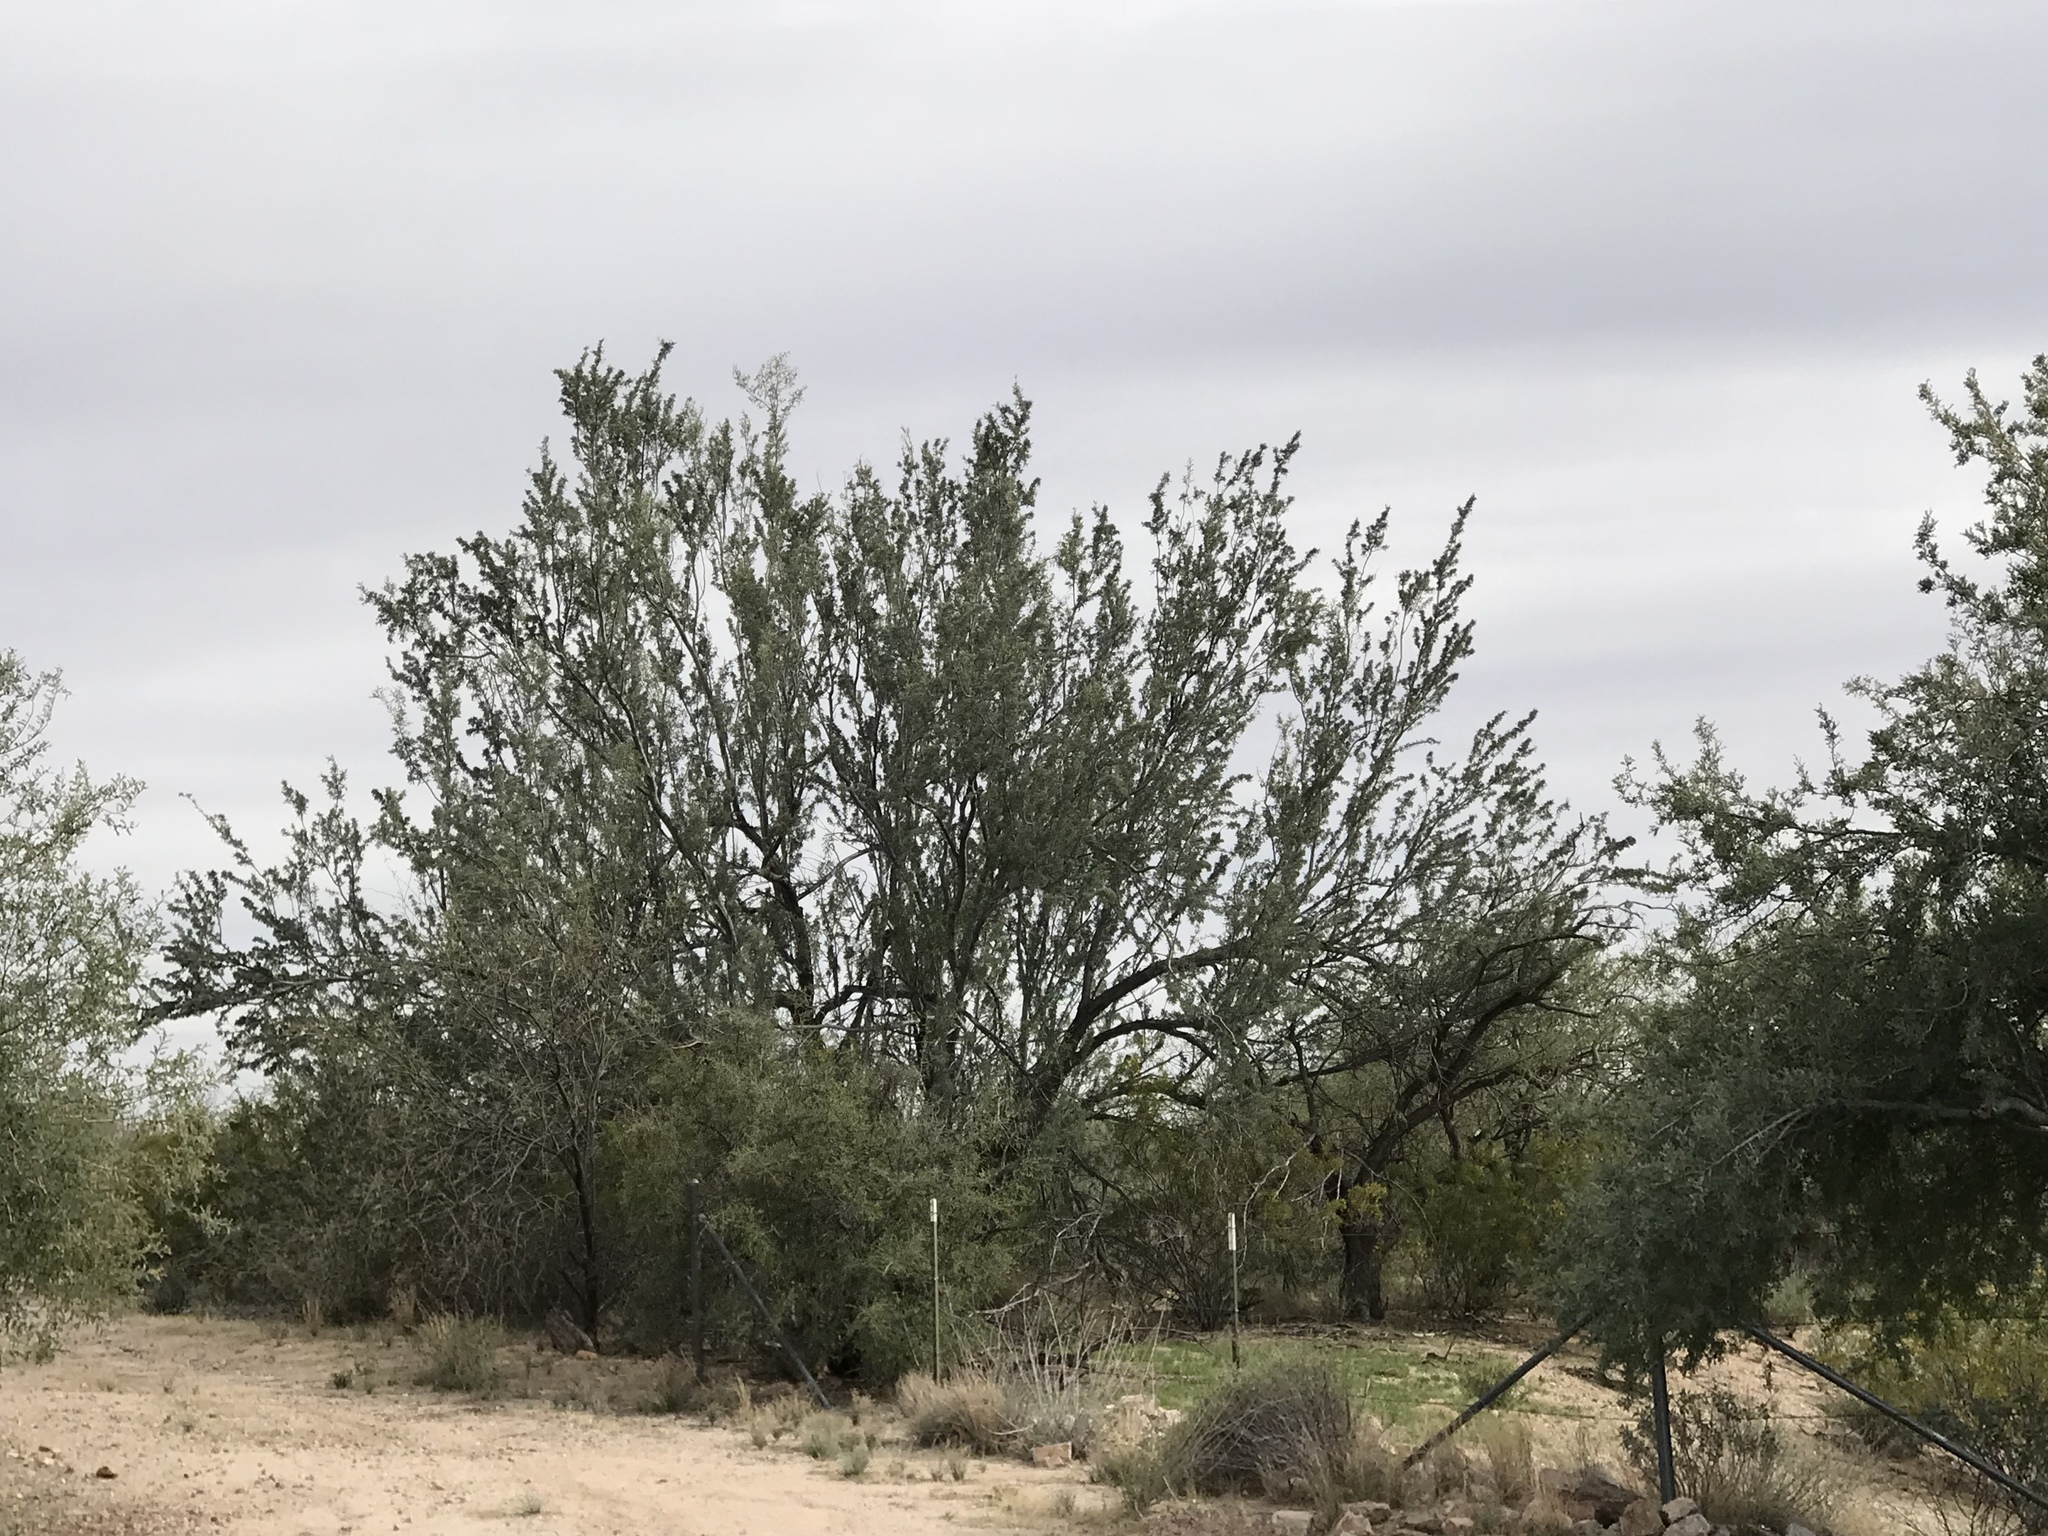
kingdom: Plantae
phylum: Tracheophyta
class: Magnoliopsida
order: Fabales
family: Fabaceae
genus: Olneya
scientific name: Olneya tesota
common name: Desert ironwood
